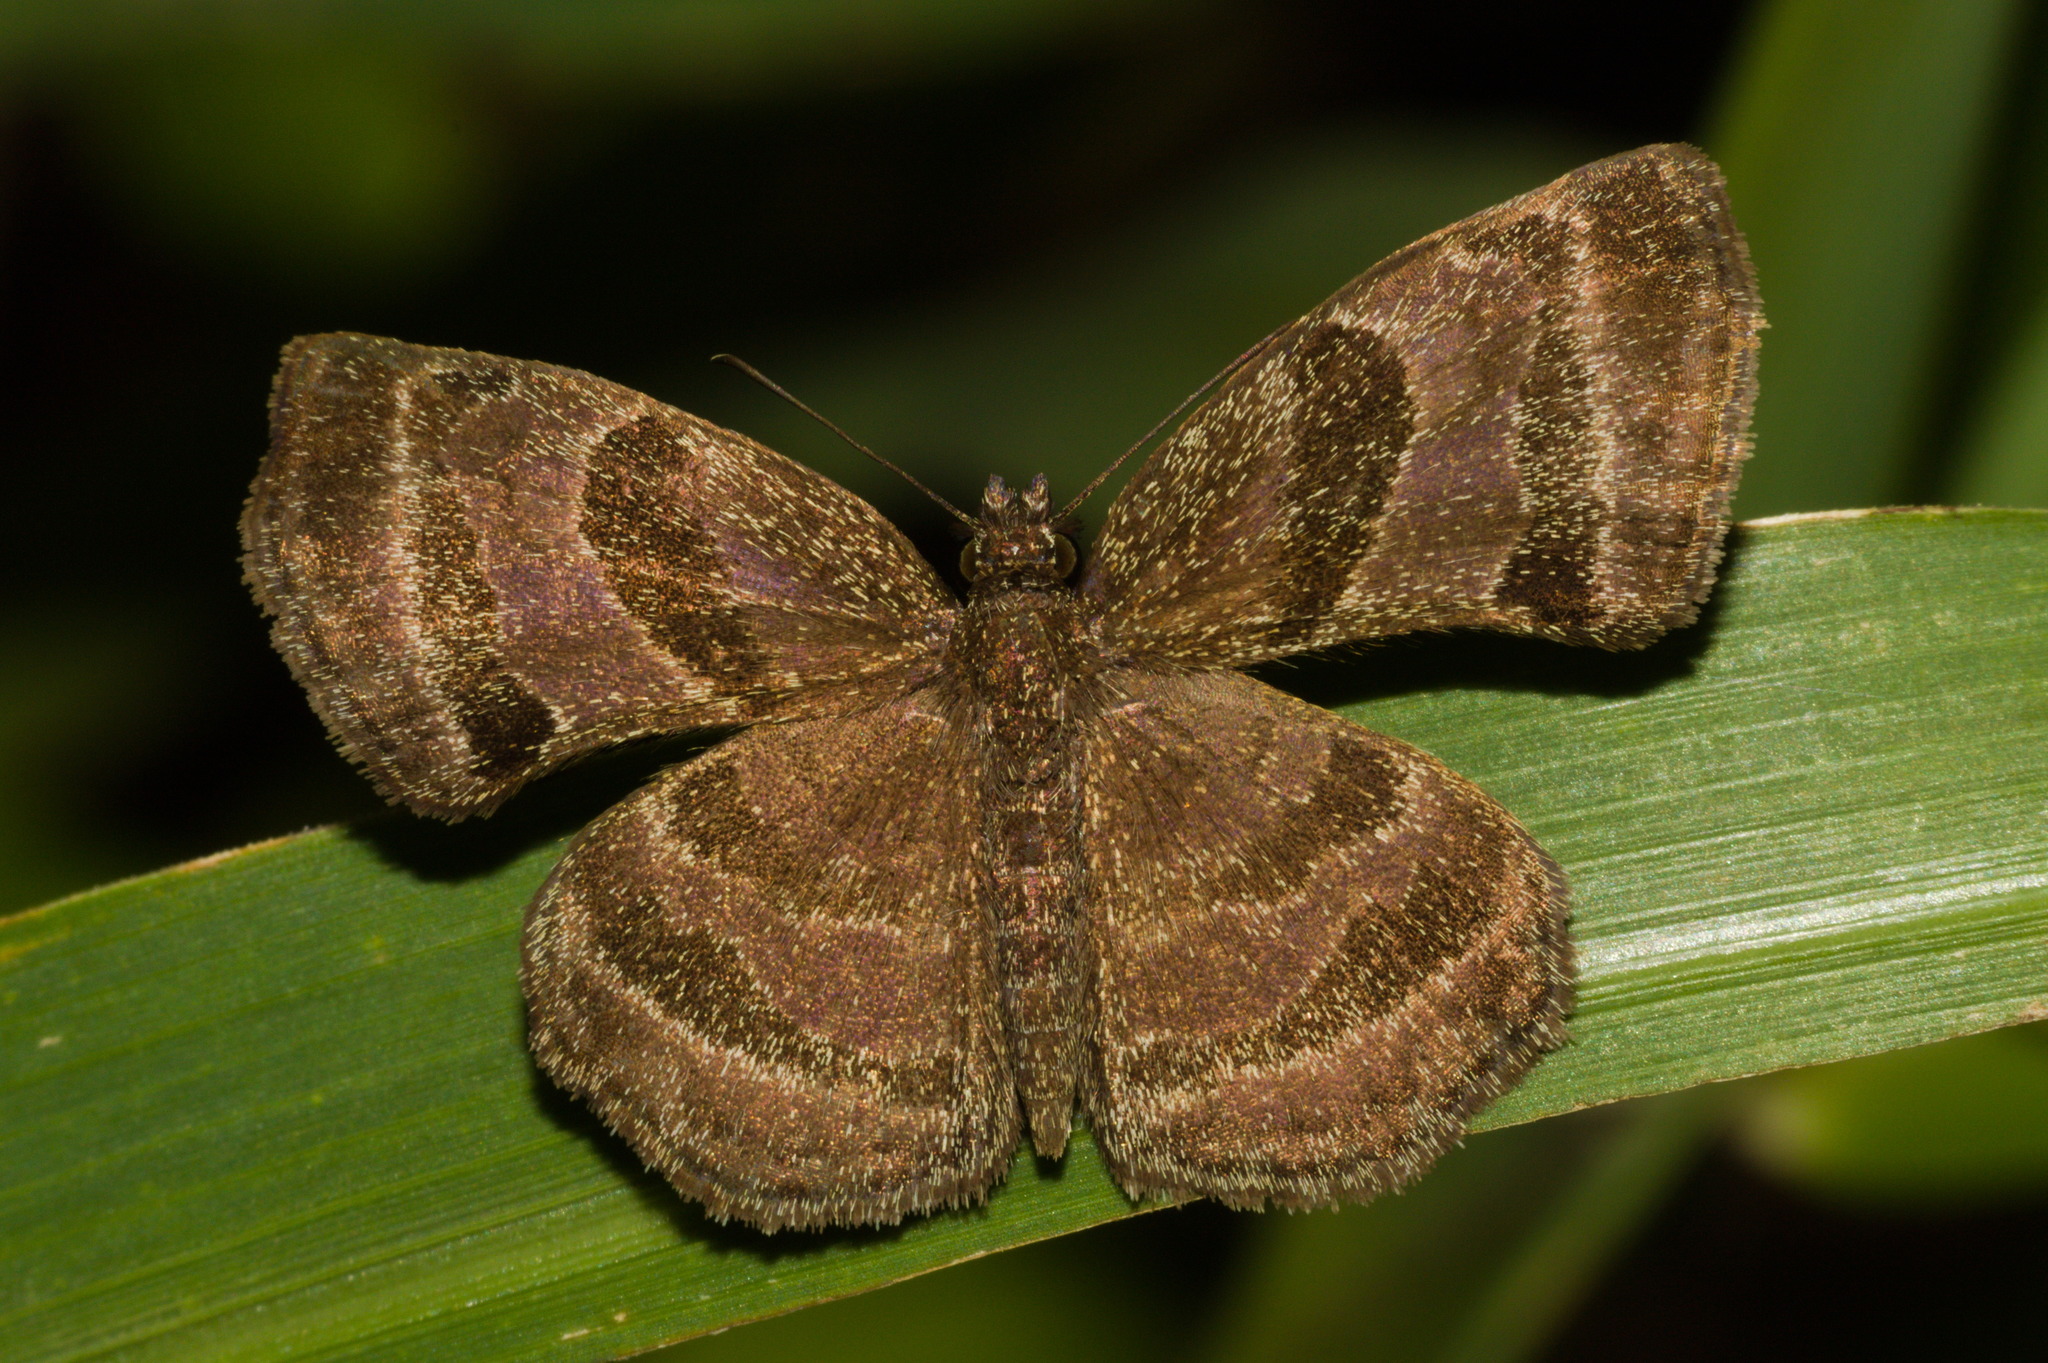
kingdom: Animalia
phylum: Arthropoda
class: Insecta
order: Lepidoptera
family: Hesperiidae
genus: Trina
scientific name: Trina geometrina
